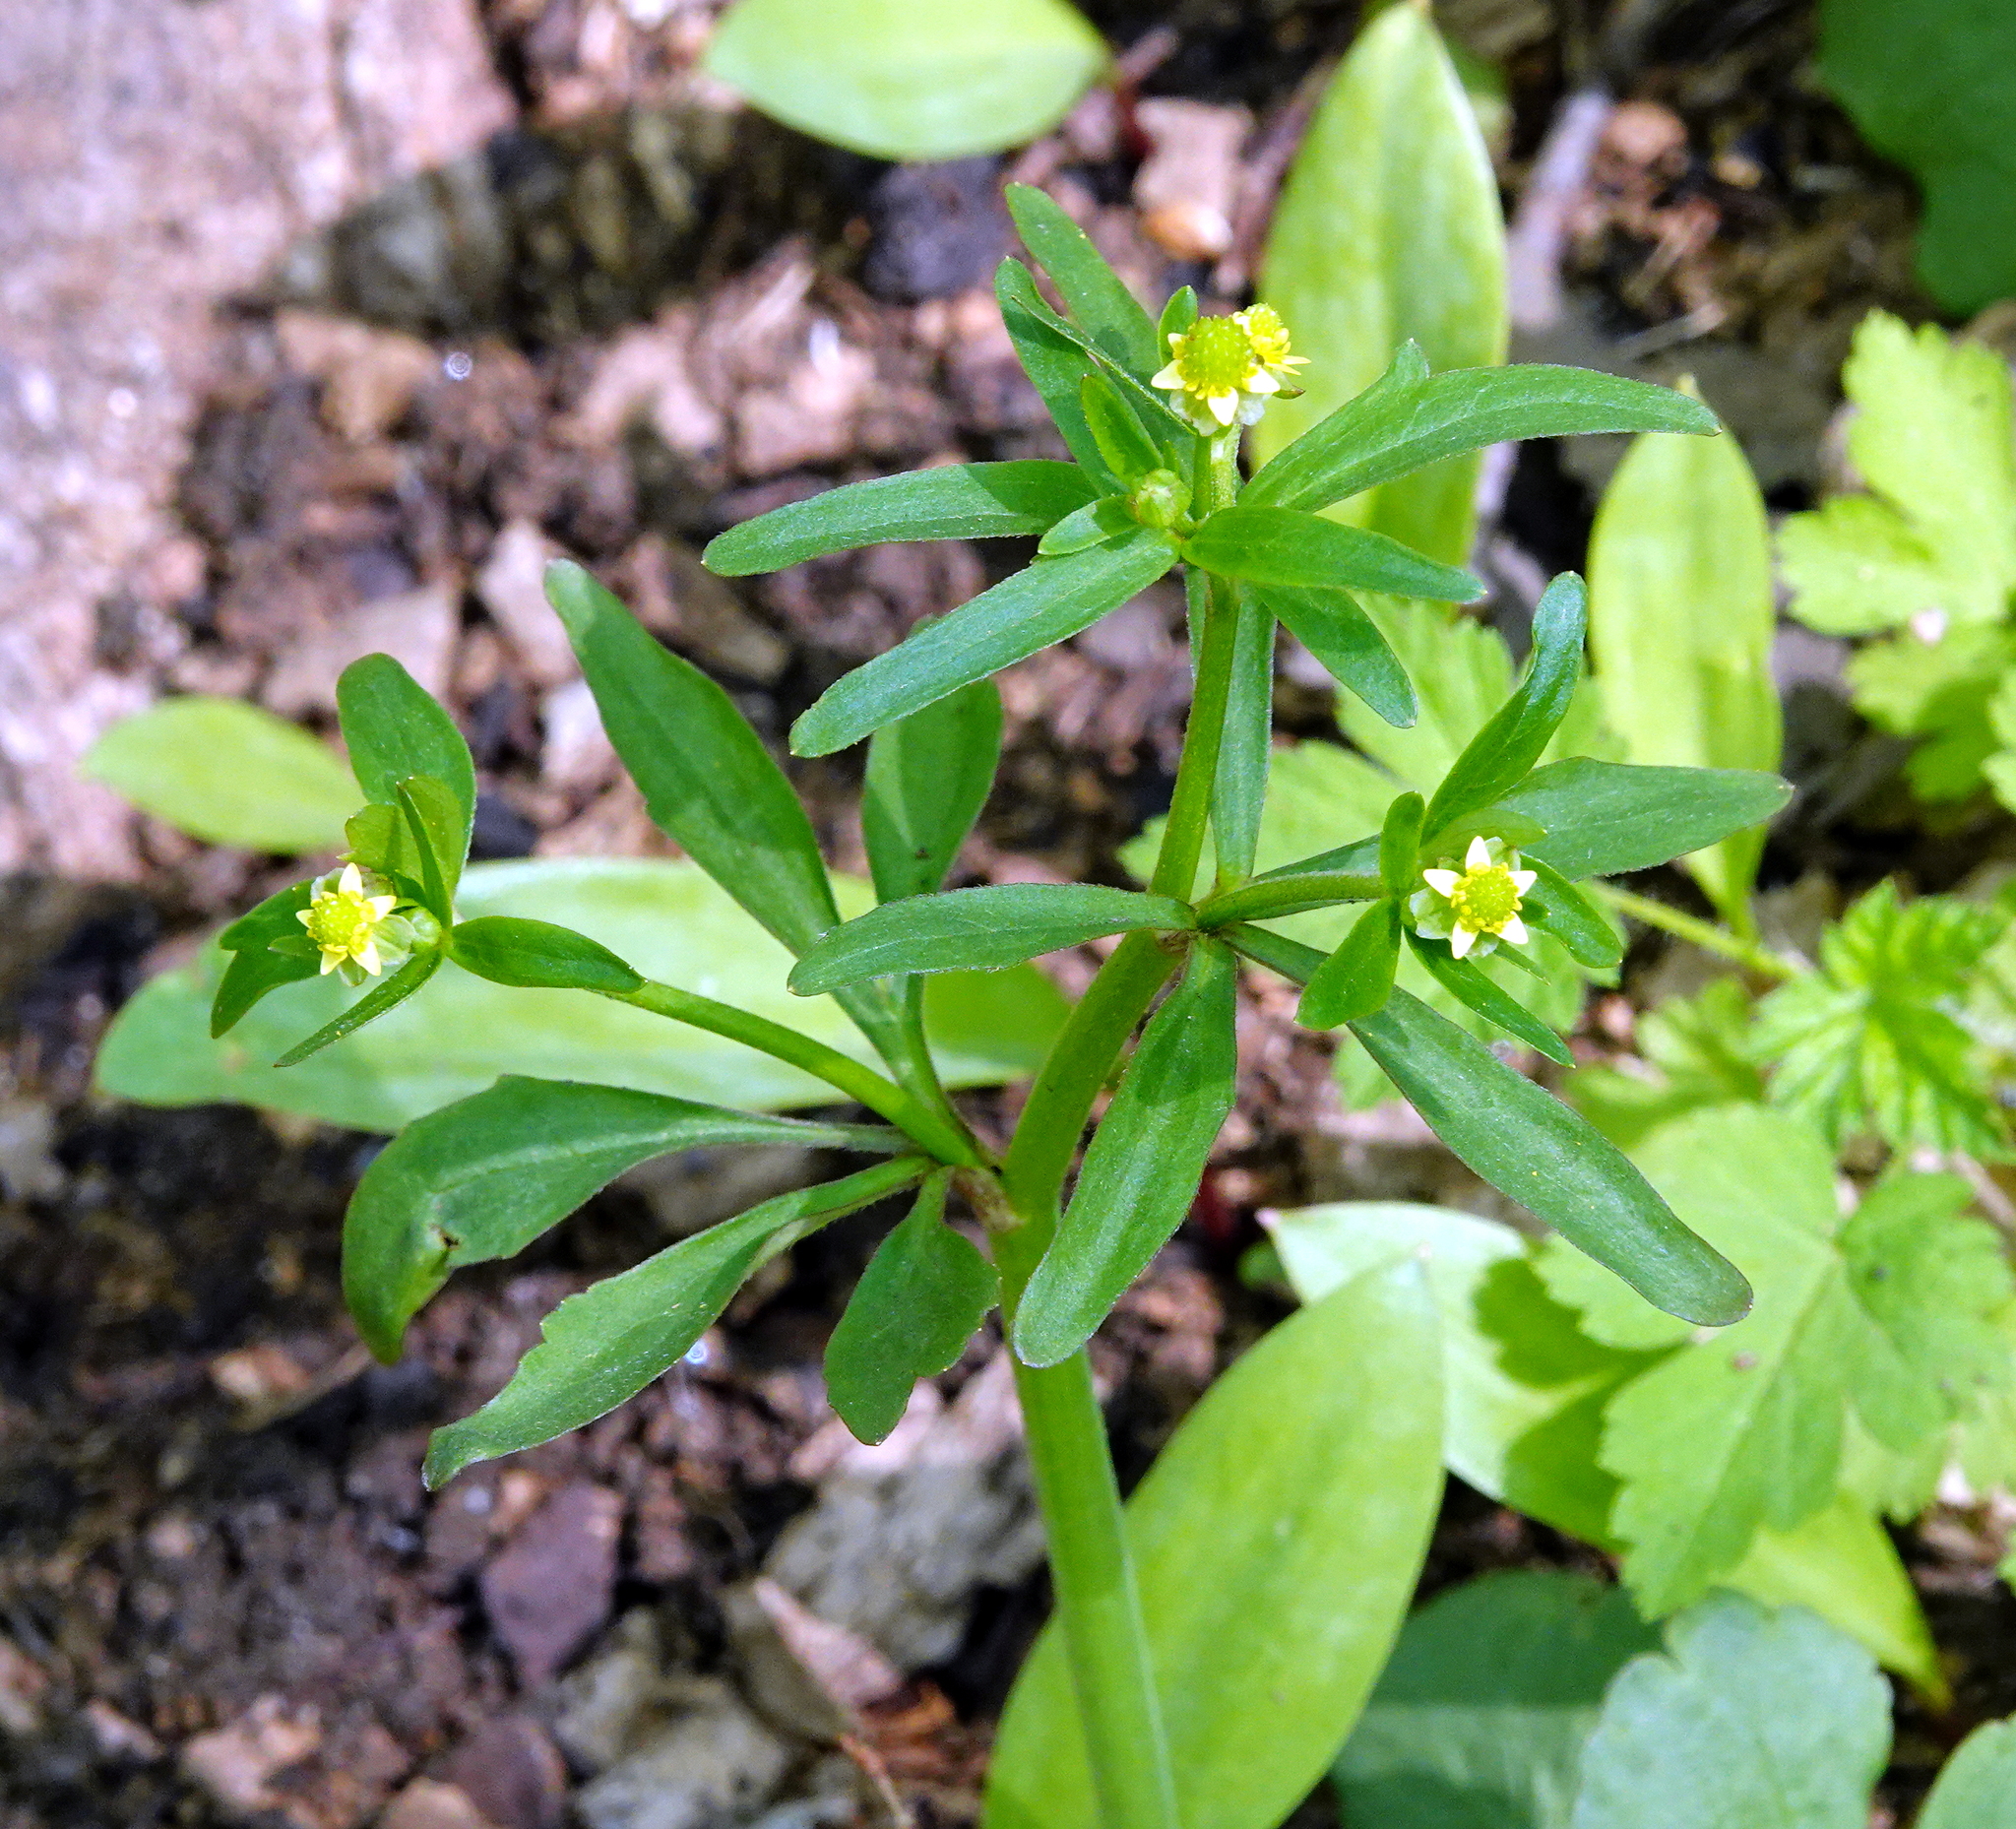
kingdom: Plantae
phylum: Tracheophyta
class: Magnoliopsida
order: Ranunculales
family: Ranunculaceae
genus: Ranunculus
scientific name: Ranunculus abortivus
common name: Early wood buttercup
